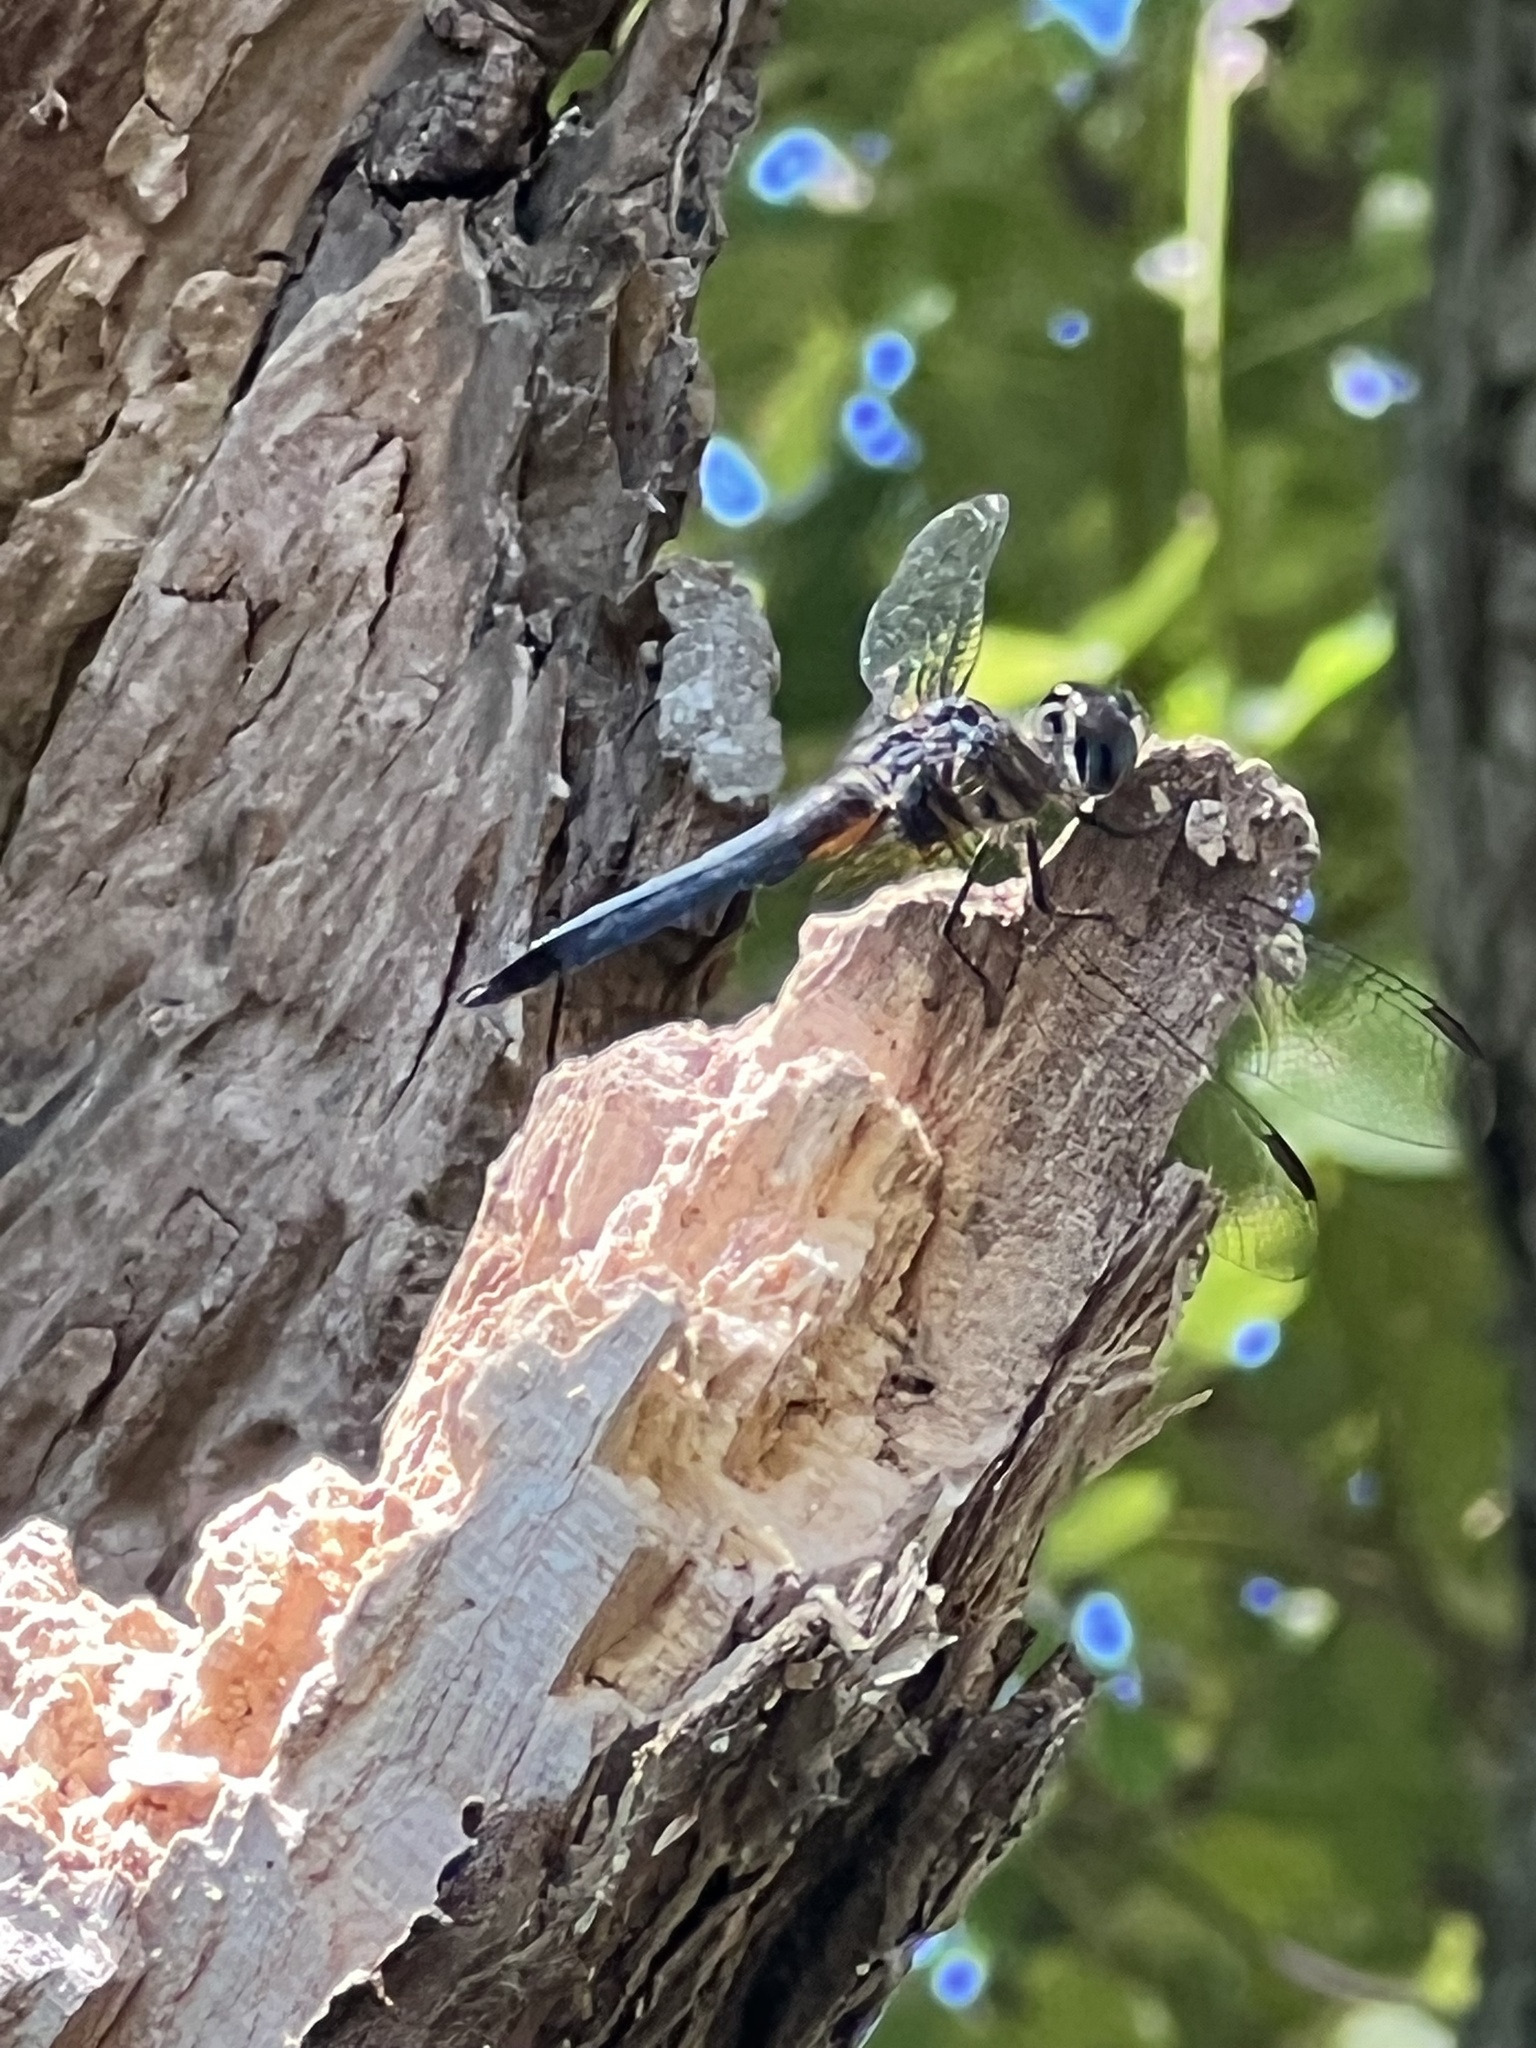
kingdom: Animalia
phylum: Arthropoda
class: Insecta
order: Odonata
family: Libellulidae
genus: Pachydiplax
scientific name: Pachydiplax longipennis
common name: Blue dasher
